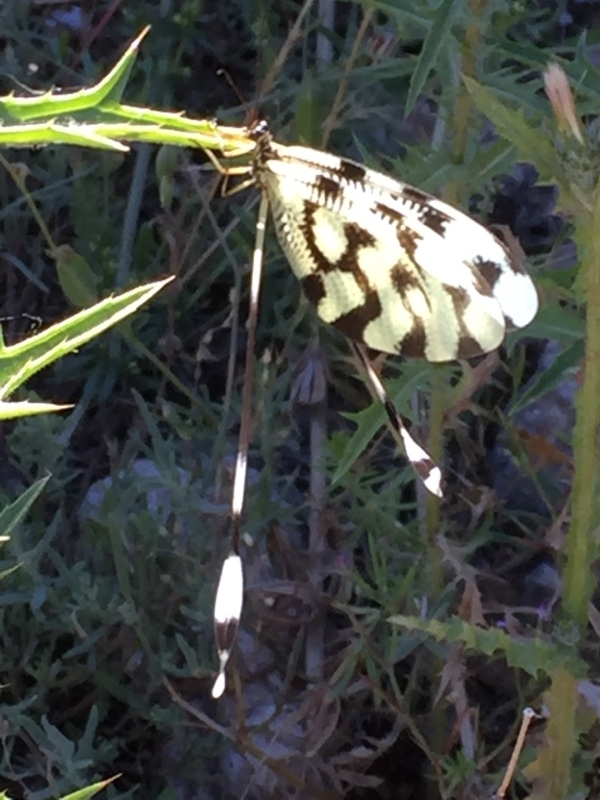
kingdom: Animalia
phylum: Arthropoda
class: Insecta
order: Neuroptera
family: Nemopteridae
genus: Nemoptera
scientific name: Nemoptera sinuata
